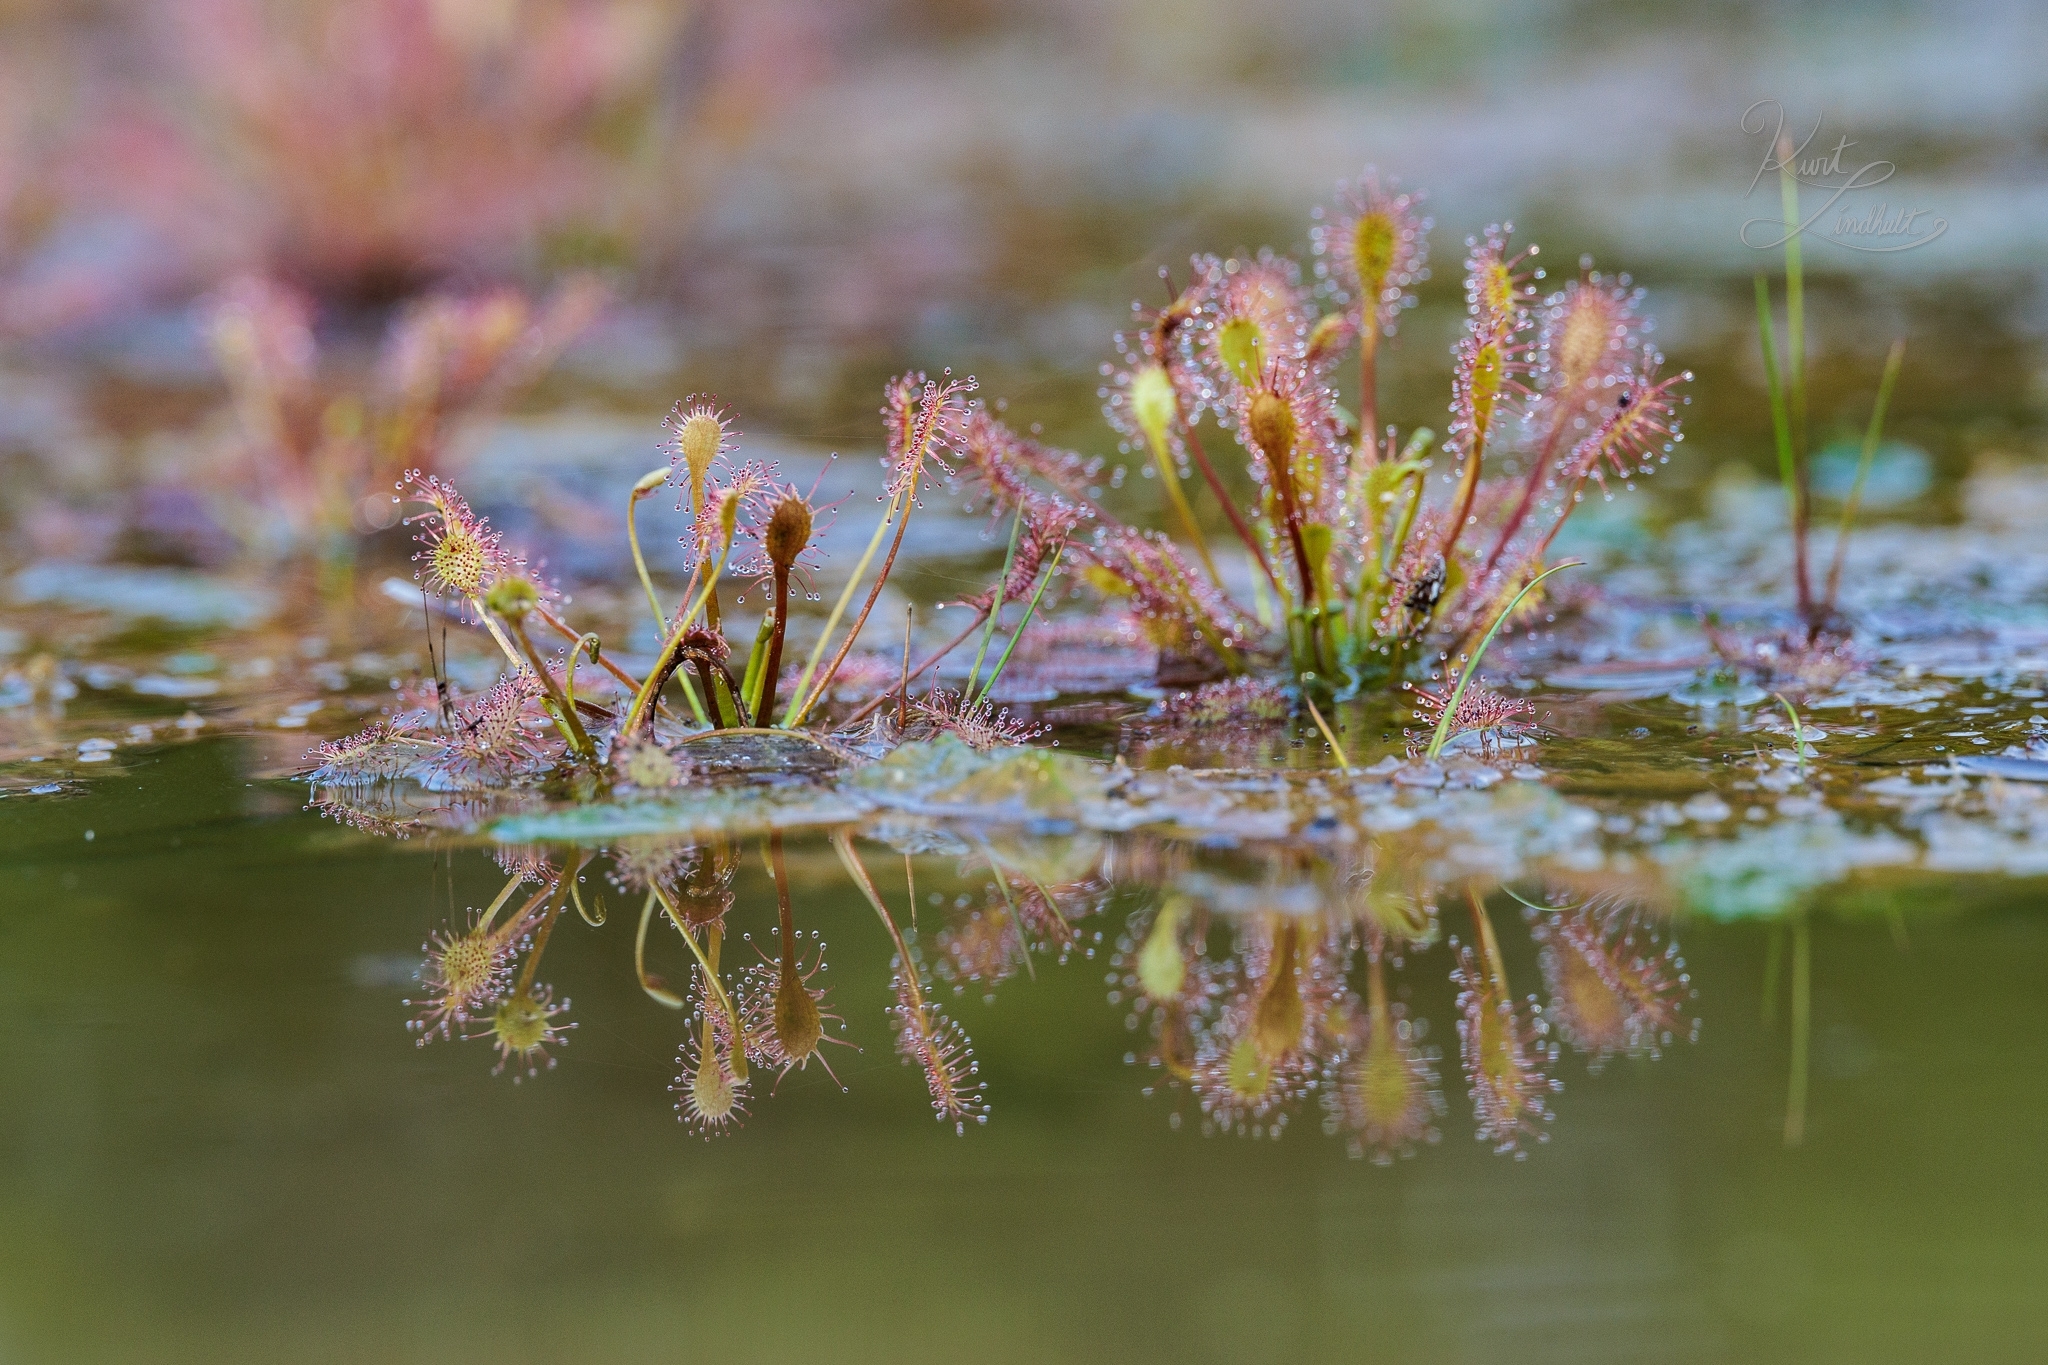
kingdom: Plantae
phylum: Tracheophyta
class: Magnoliopsida
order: Caryophyllales
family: Droseraceae
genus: Drosera
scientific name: Drosera intermedia
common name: Oblong-leaved sundew
